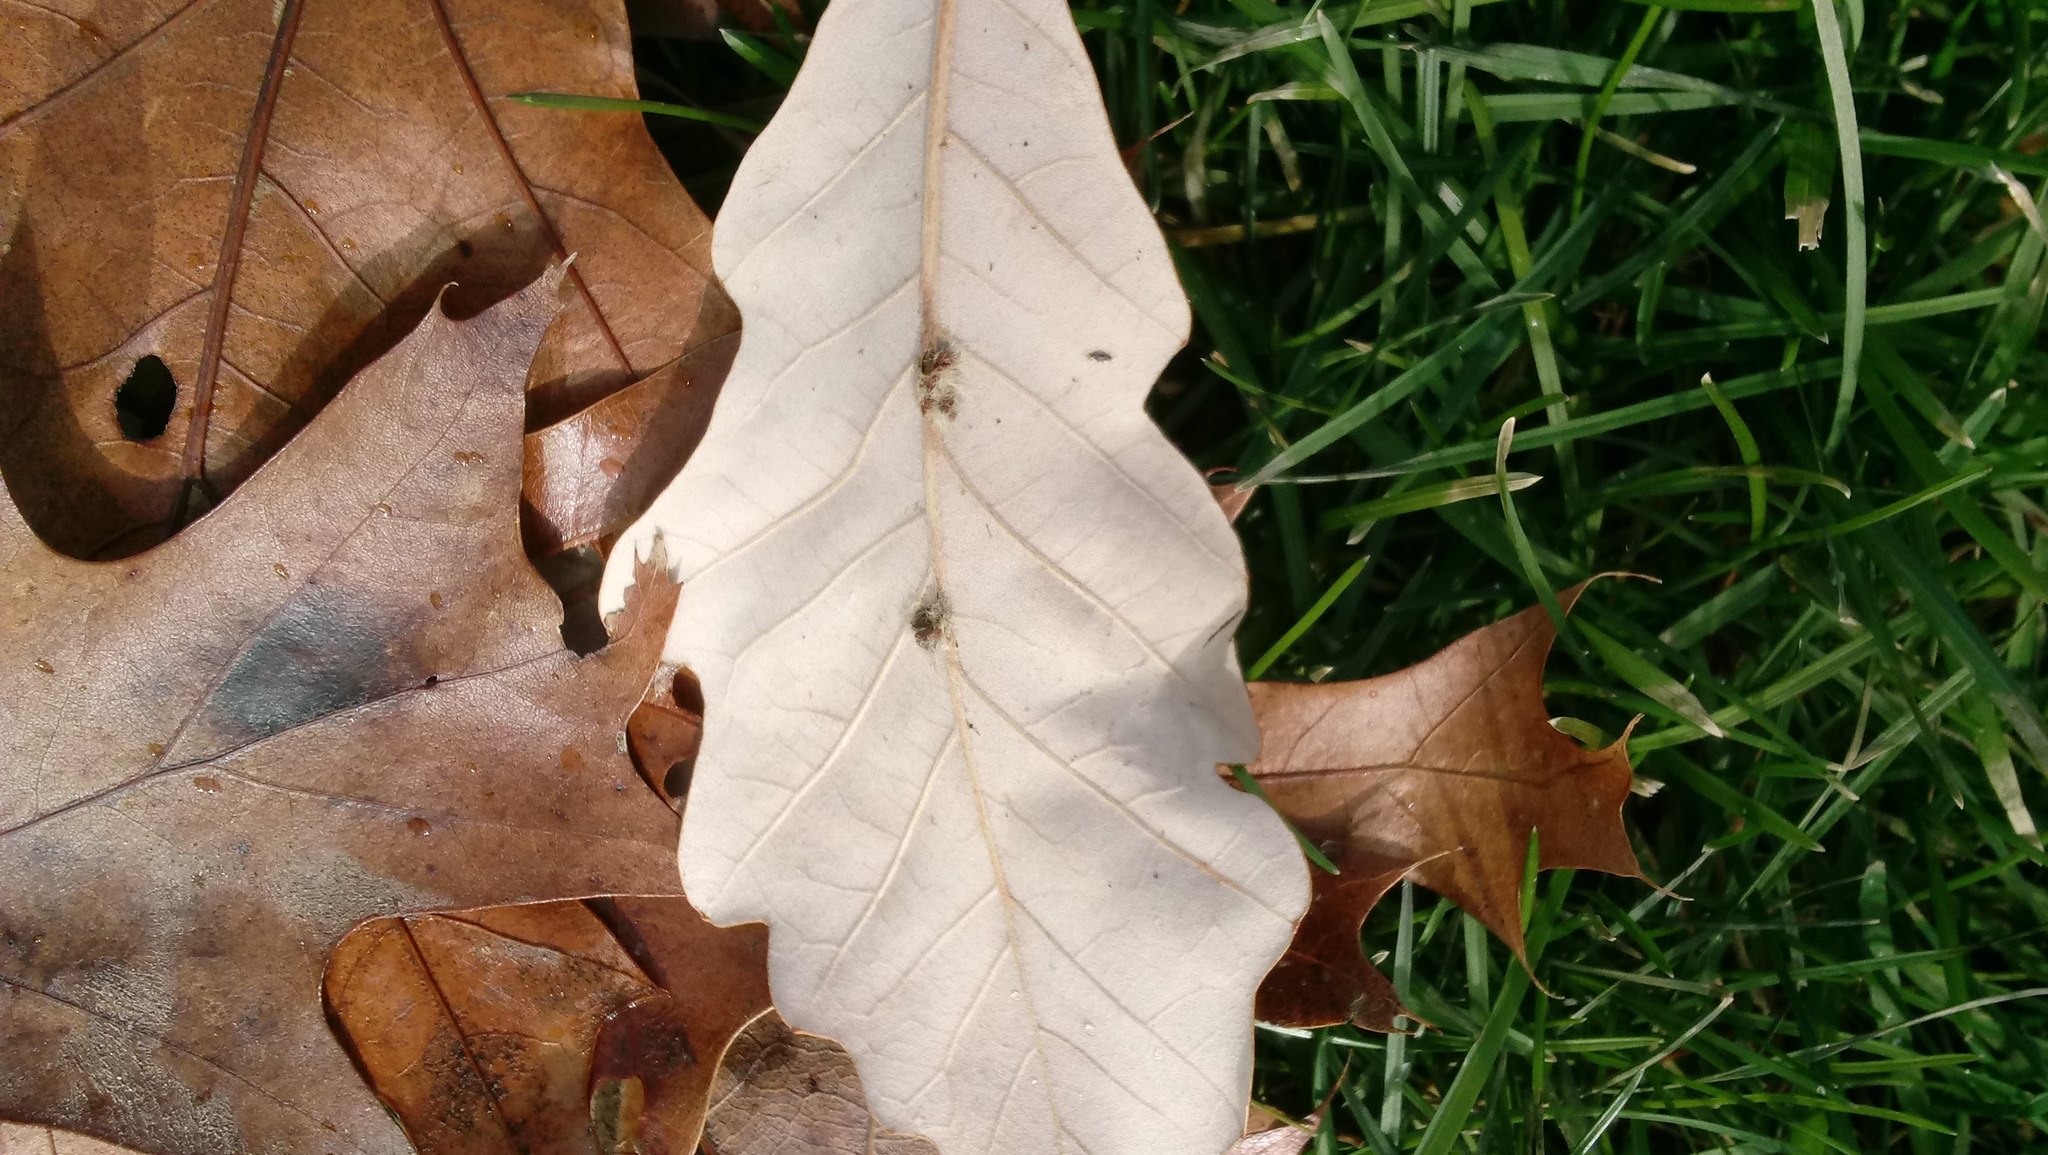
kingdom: Animalia
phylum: Arthropoda
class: Insecta
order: Hymenoptera
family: Cynipidae
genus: Andricus
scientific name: Andricus Druon ignotum
